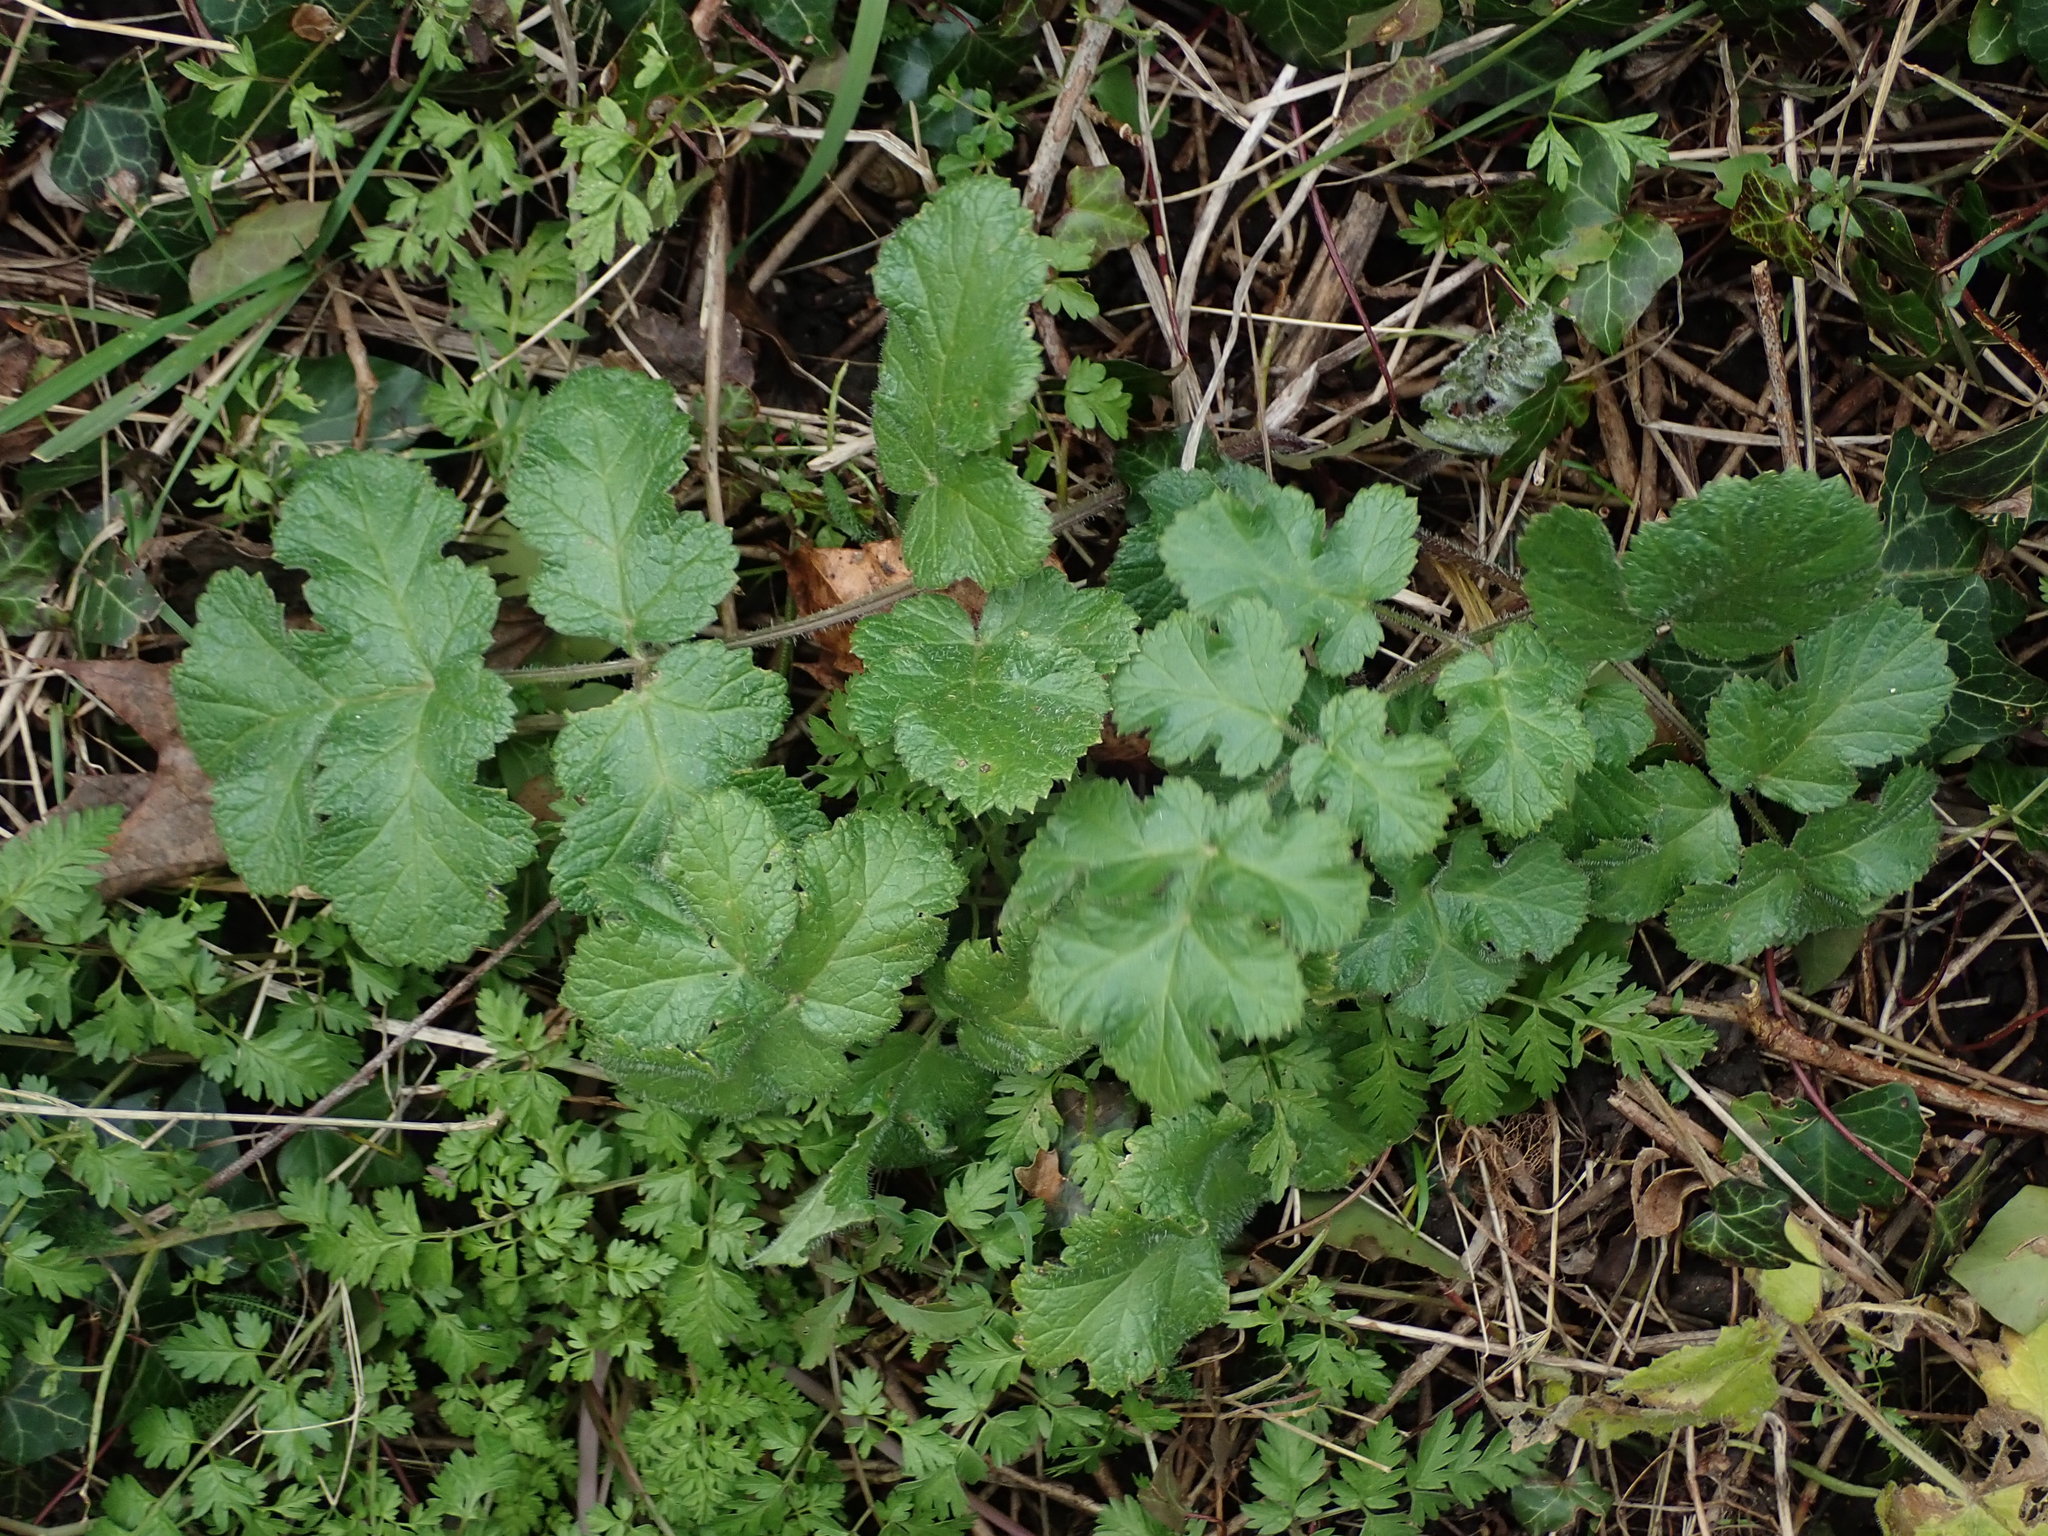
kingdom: Plantae
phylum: Tracheophyta
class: Magnoliopsida
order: Apiales
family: Apiaceae
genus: Heracleum
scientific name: Heracleum sphondylium
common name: Hogweed
